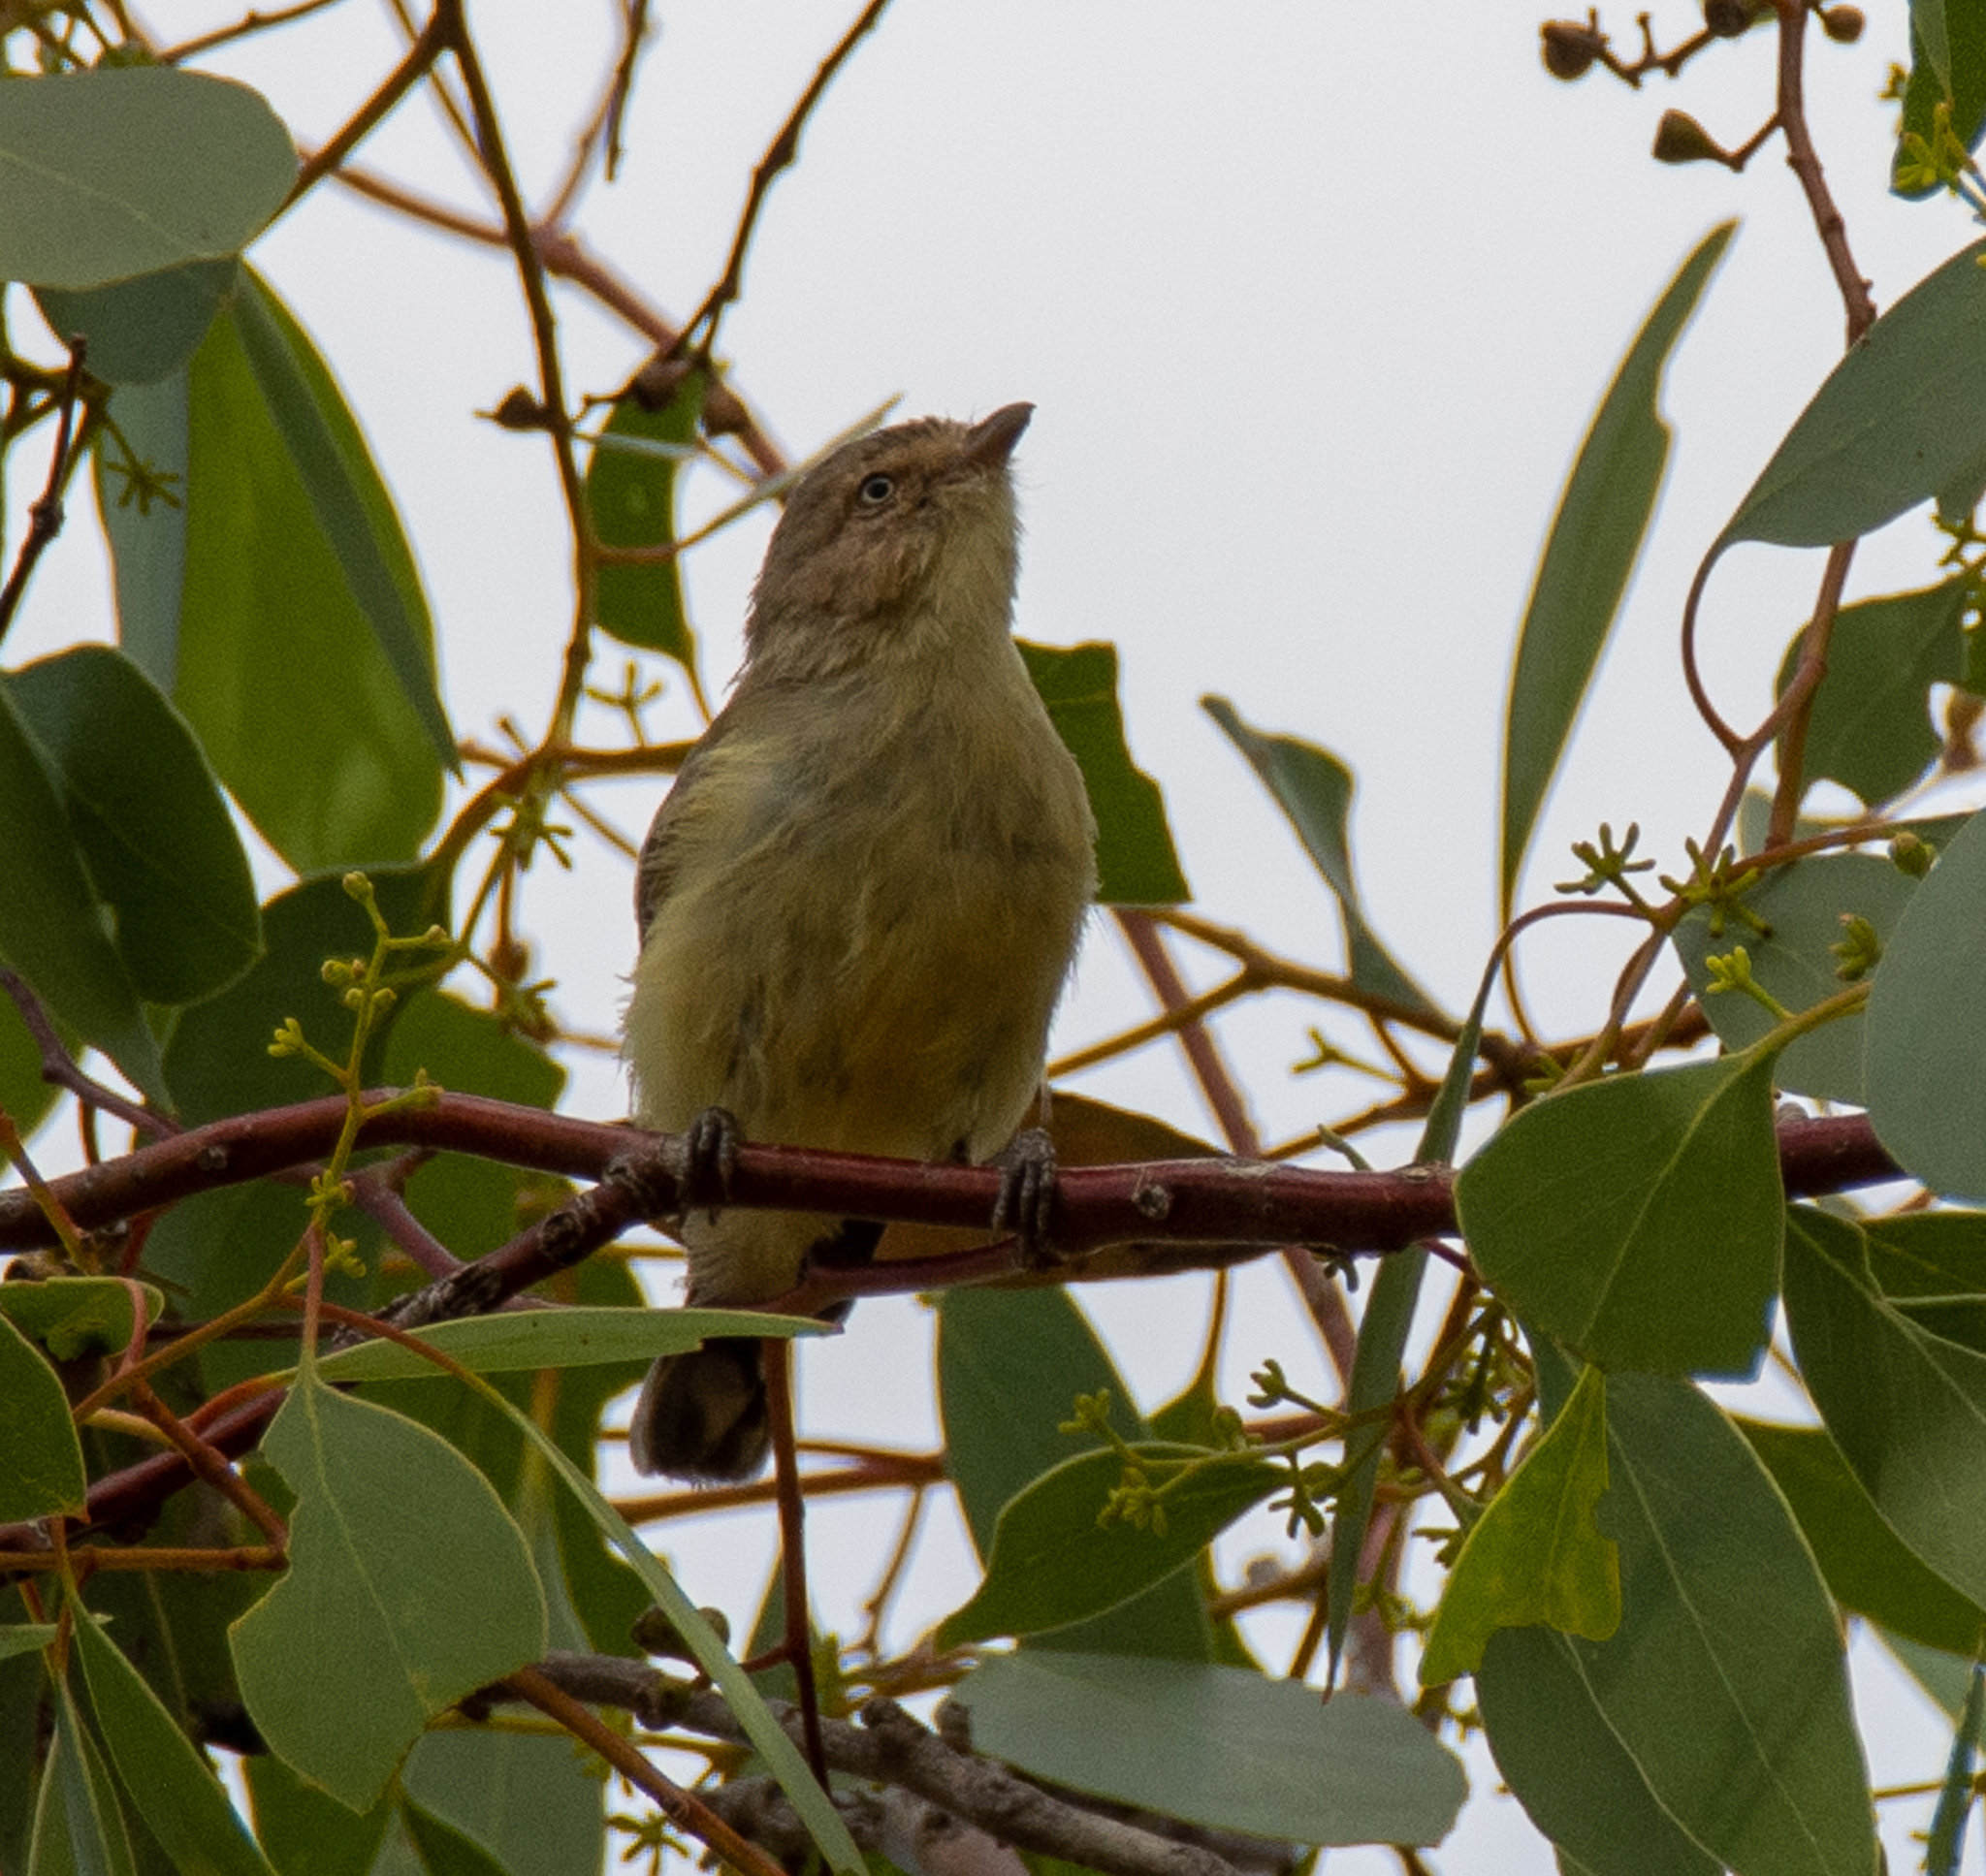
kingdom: Animalia
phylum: Chordata
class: Aves
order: Passeriformes
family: Acanthizidae
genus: Smicrornis
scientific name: Smicrornis brevirostris
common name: Weebill
